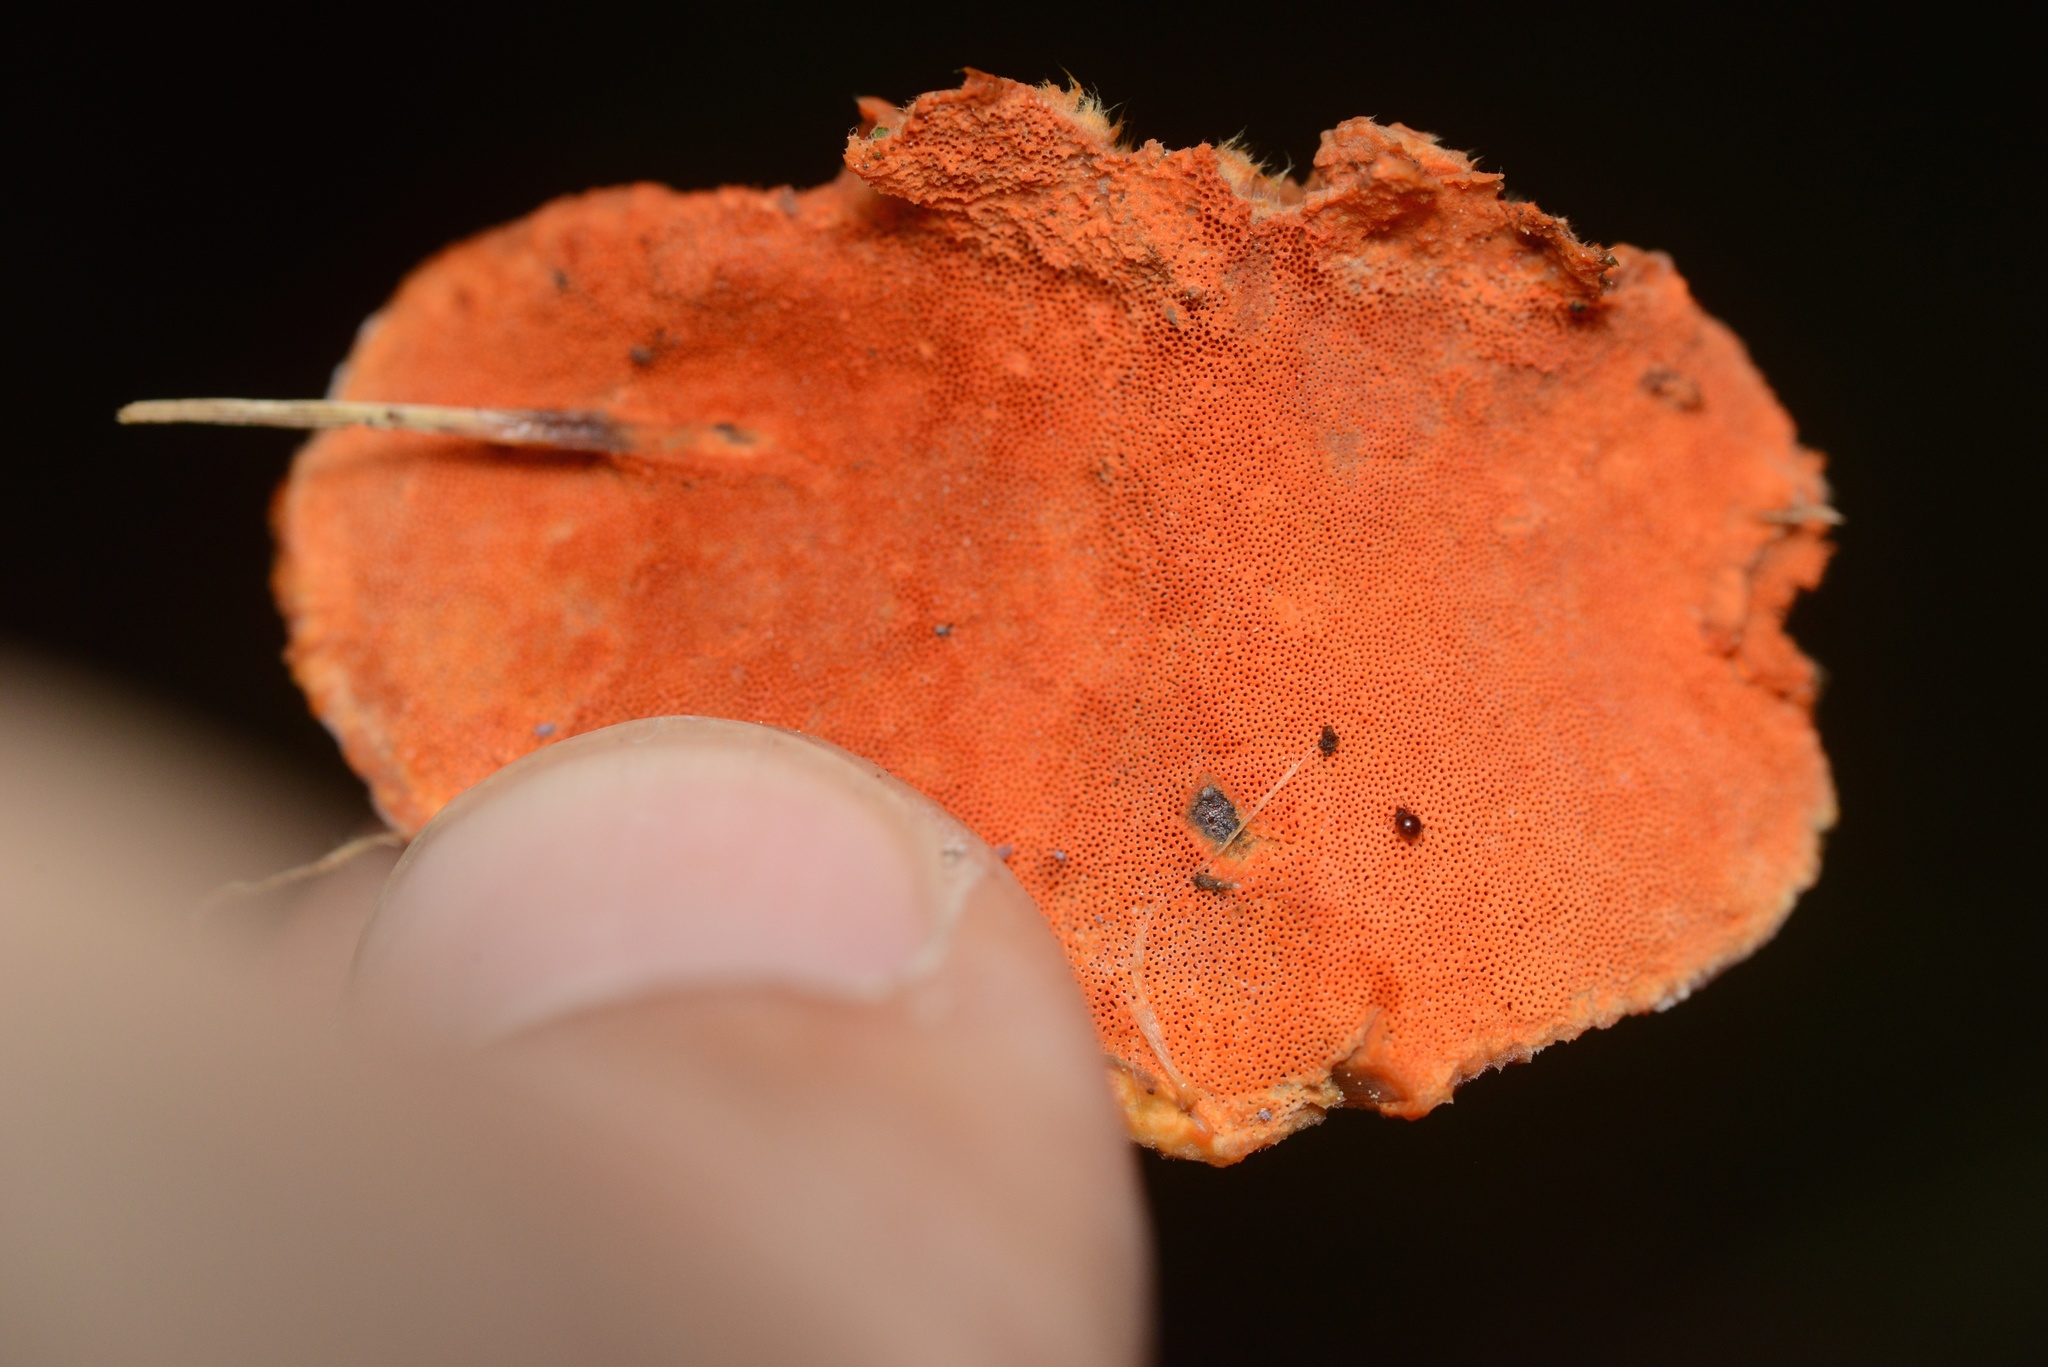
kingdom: Fungi
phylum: Basidiomycota
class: Agaricomycetes
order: Polyporales
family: Polyporaceae
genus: Trametes
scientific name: Trametes coccinea
